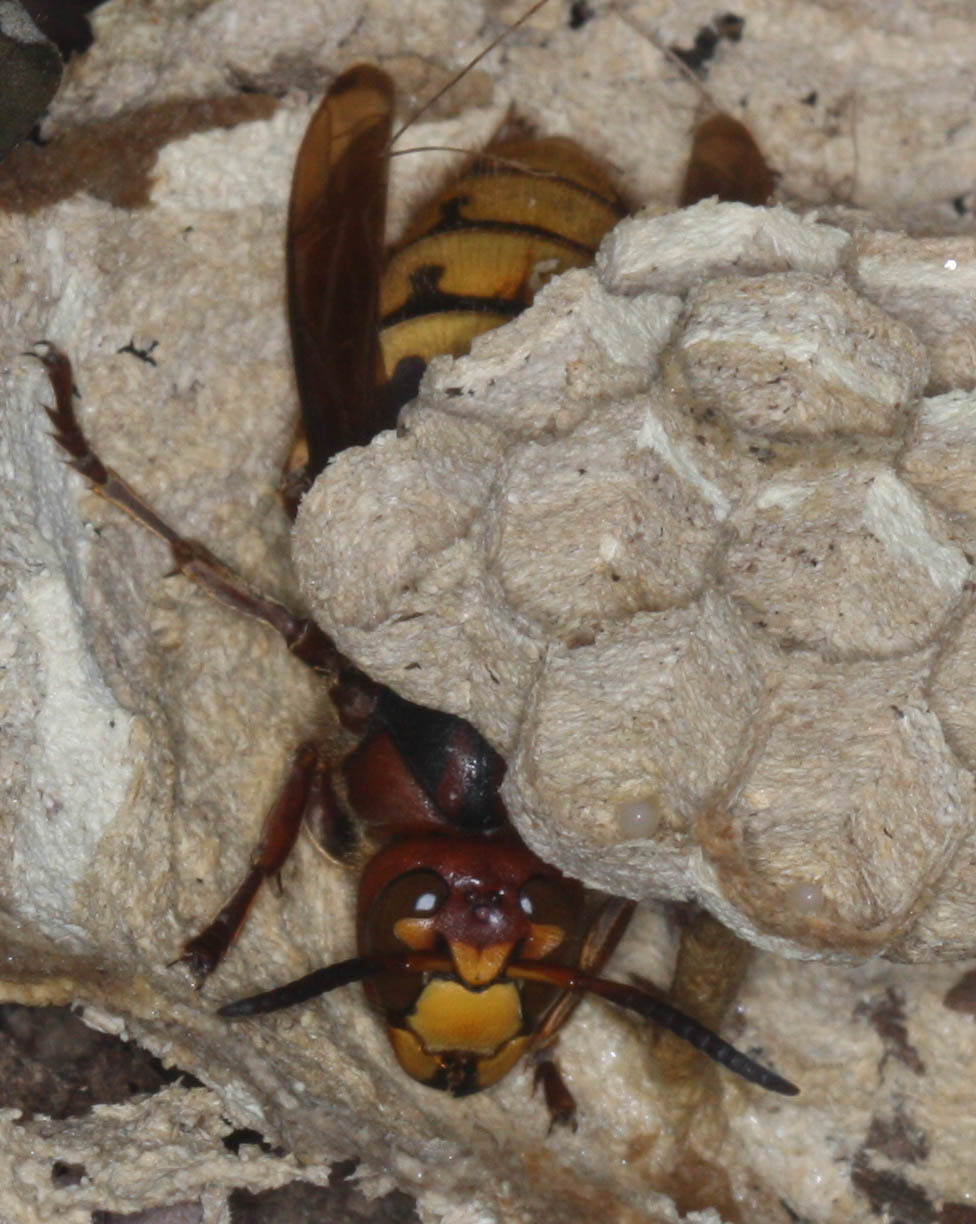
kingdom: Animalia
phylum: Arthropoda
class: Insecta
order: Hymenoptera
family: Vespidae
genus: Vespa
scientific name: Vespa crabro
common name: Hornet
